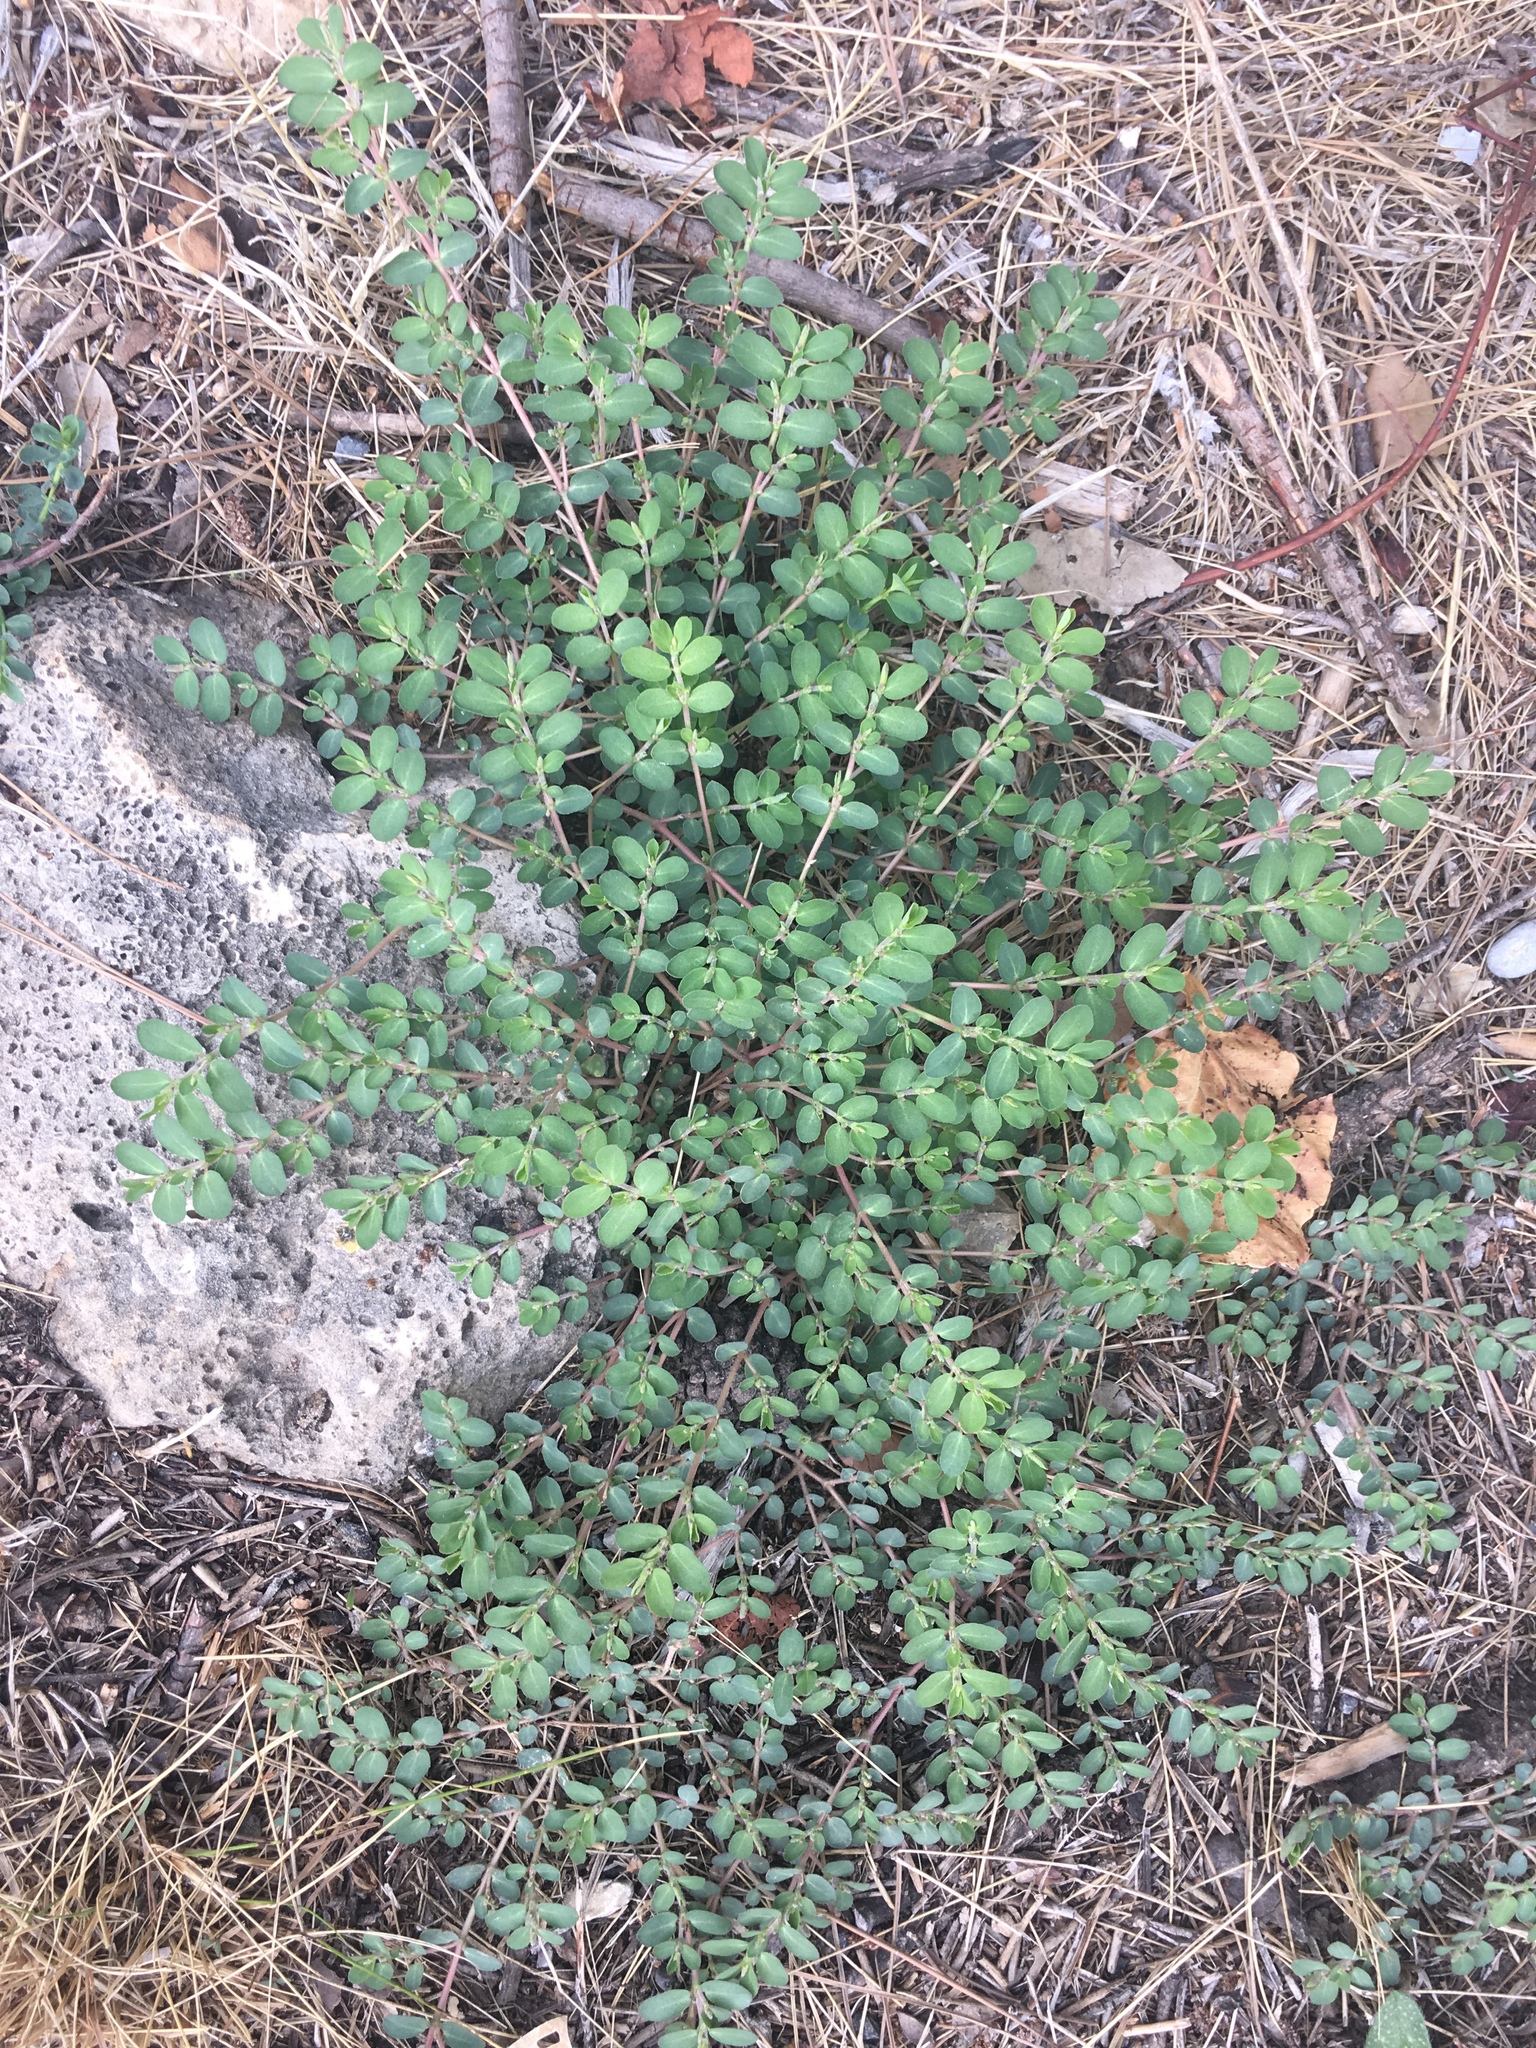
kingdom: Plantae
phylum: Tracheophyta
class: Magnoliopsida
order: Malpighiales
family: Euphorbiaceae
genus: Euphorbia
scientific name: Euphorbia prostrata
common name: Prostrate sandmat
